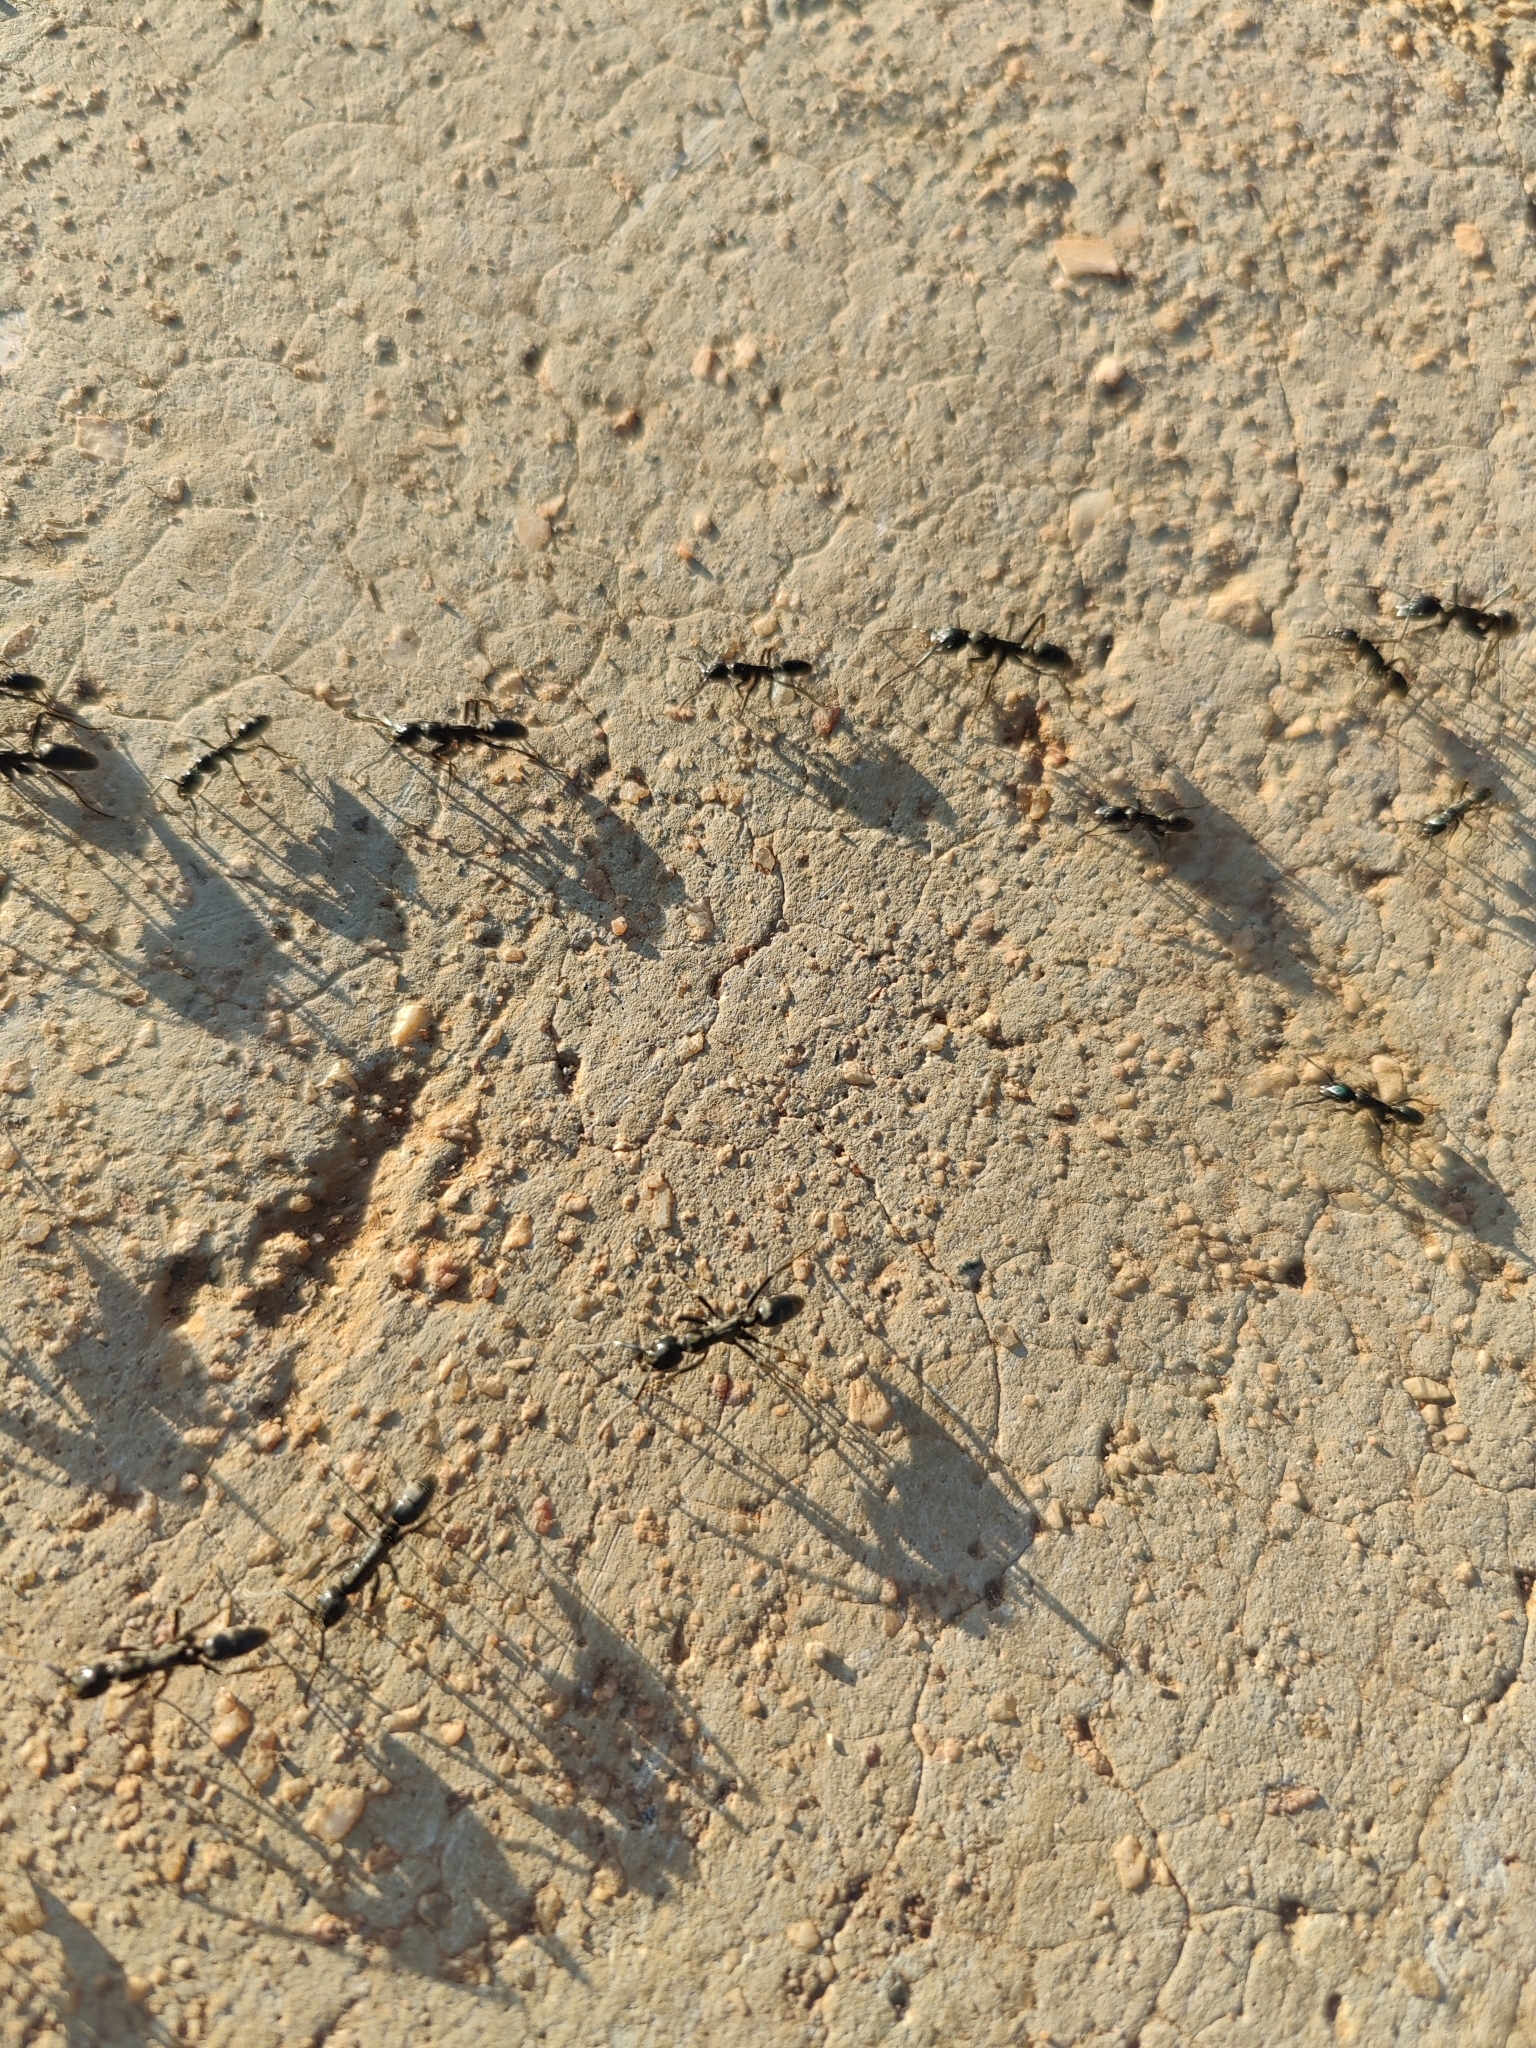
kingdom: Animalia
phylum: Arthropoda
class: Insecta
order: Hymenoptera
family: Formicidae
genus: Megaponera
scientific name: Megaponera analis
